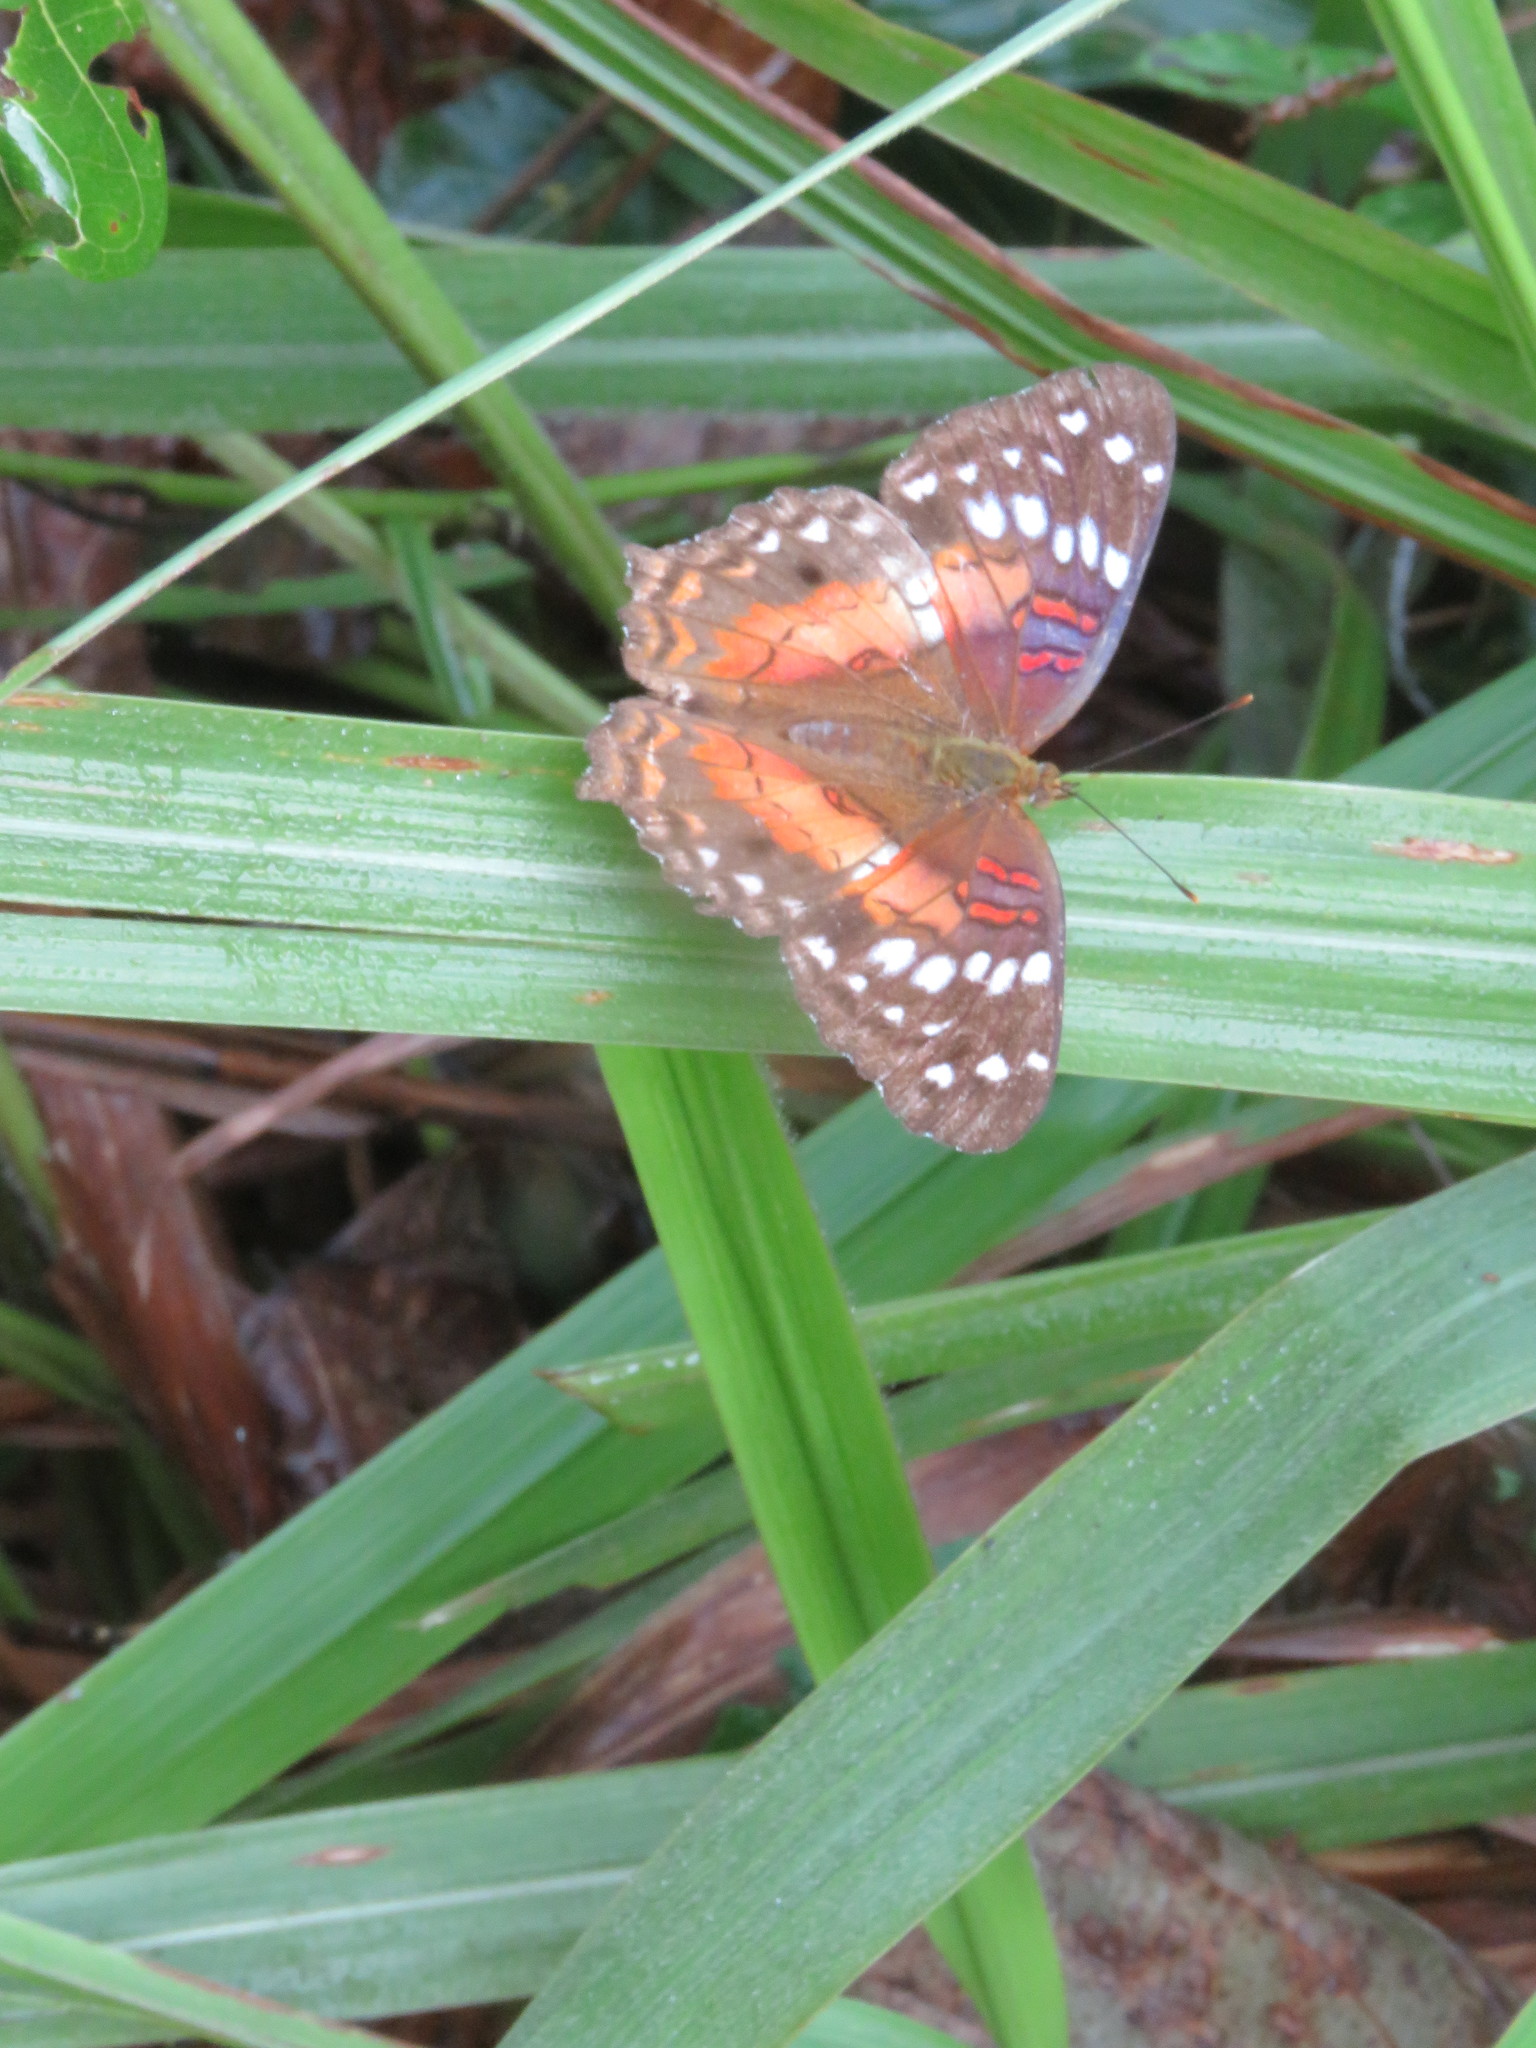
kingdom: Animalia
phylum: Arthropoda
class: Insecta
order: Lepidoptera
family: Nymphalidae
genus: Anartia
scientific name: Anartia amathea
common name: Red peacock
